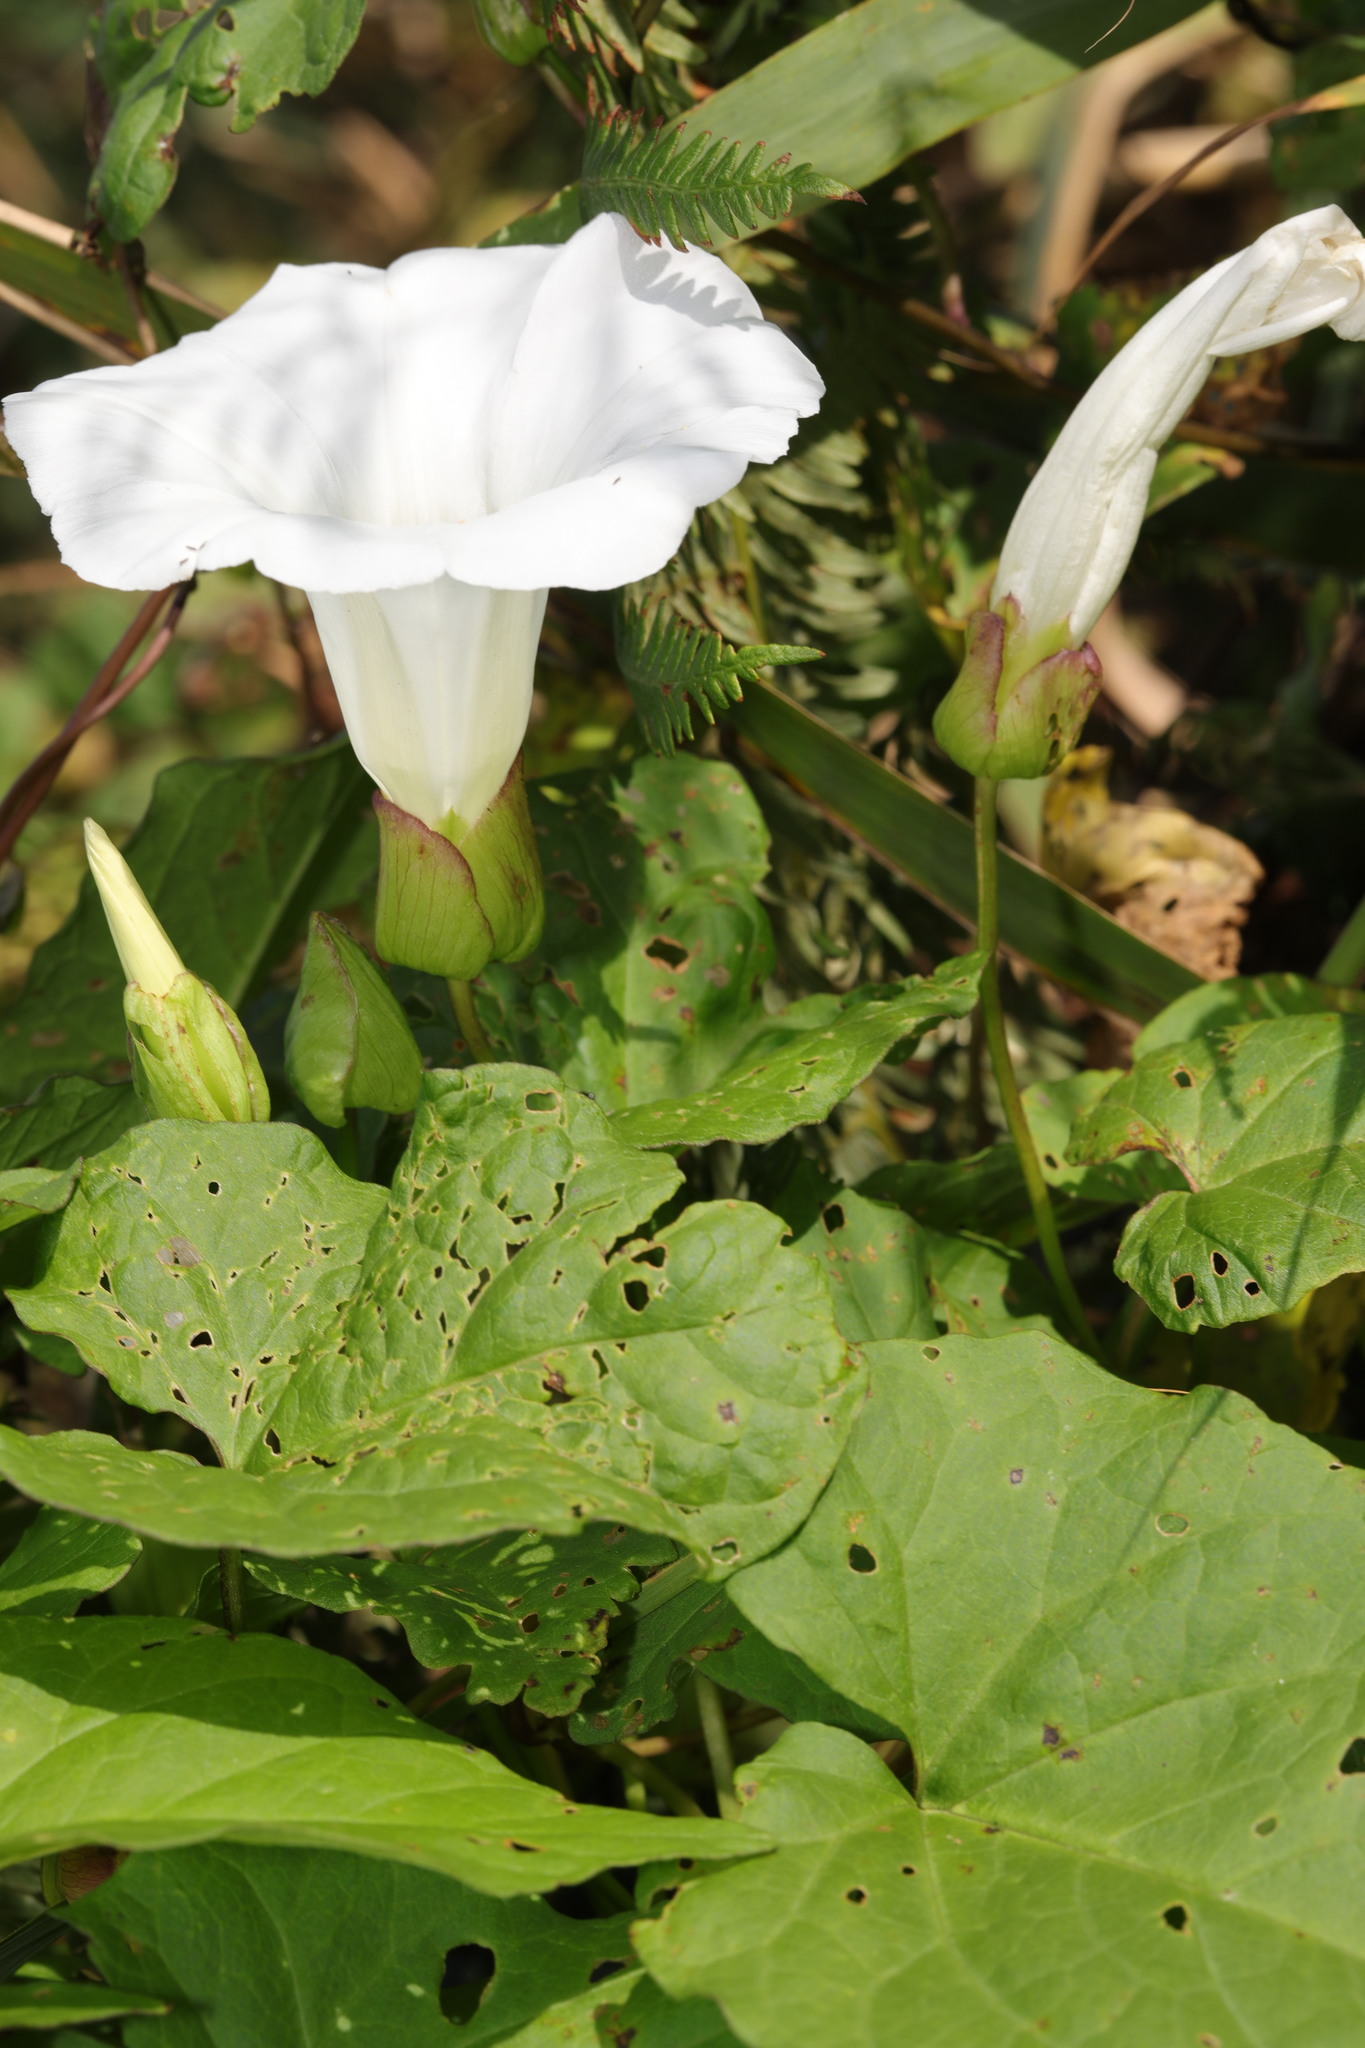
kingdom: Plantae
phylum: Tracheophyta
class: Magnoliopsida
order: Solanales
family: Convolvulaceae
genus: Calystegia
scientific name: Calystegia silvatica
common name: Large bindweed
